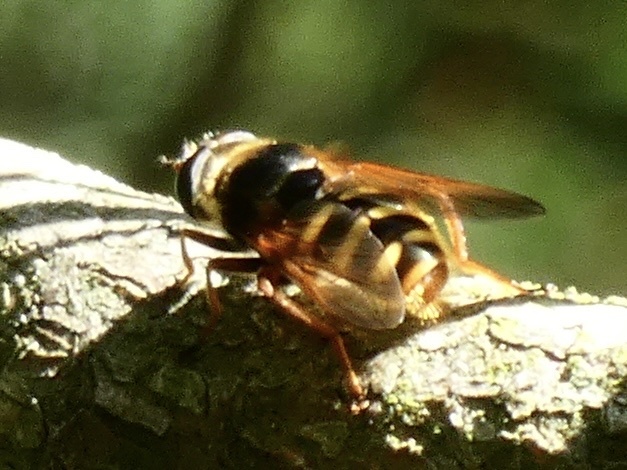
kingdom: Animalia
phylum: Arthropoda
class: Insecta
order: Diptera
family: Syrphidae
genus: Sericomyia
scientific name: Sericomyia silentis
